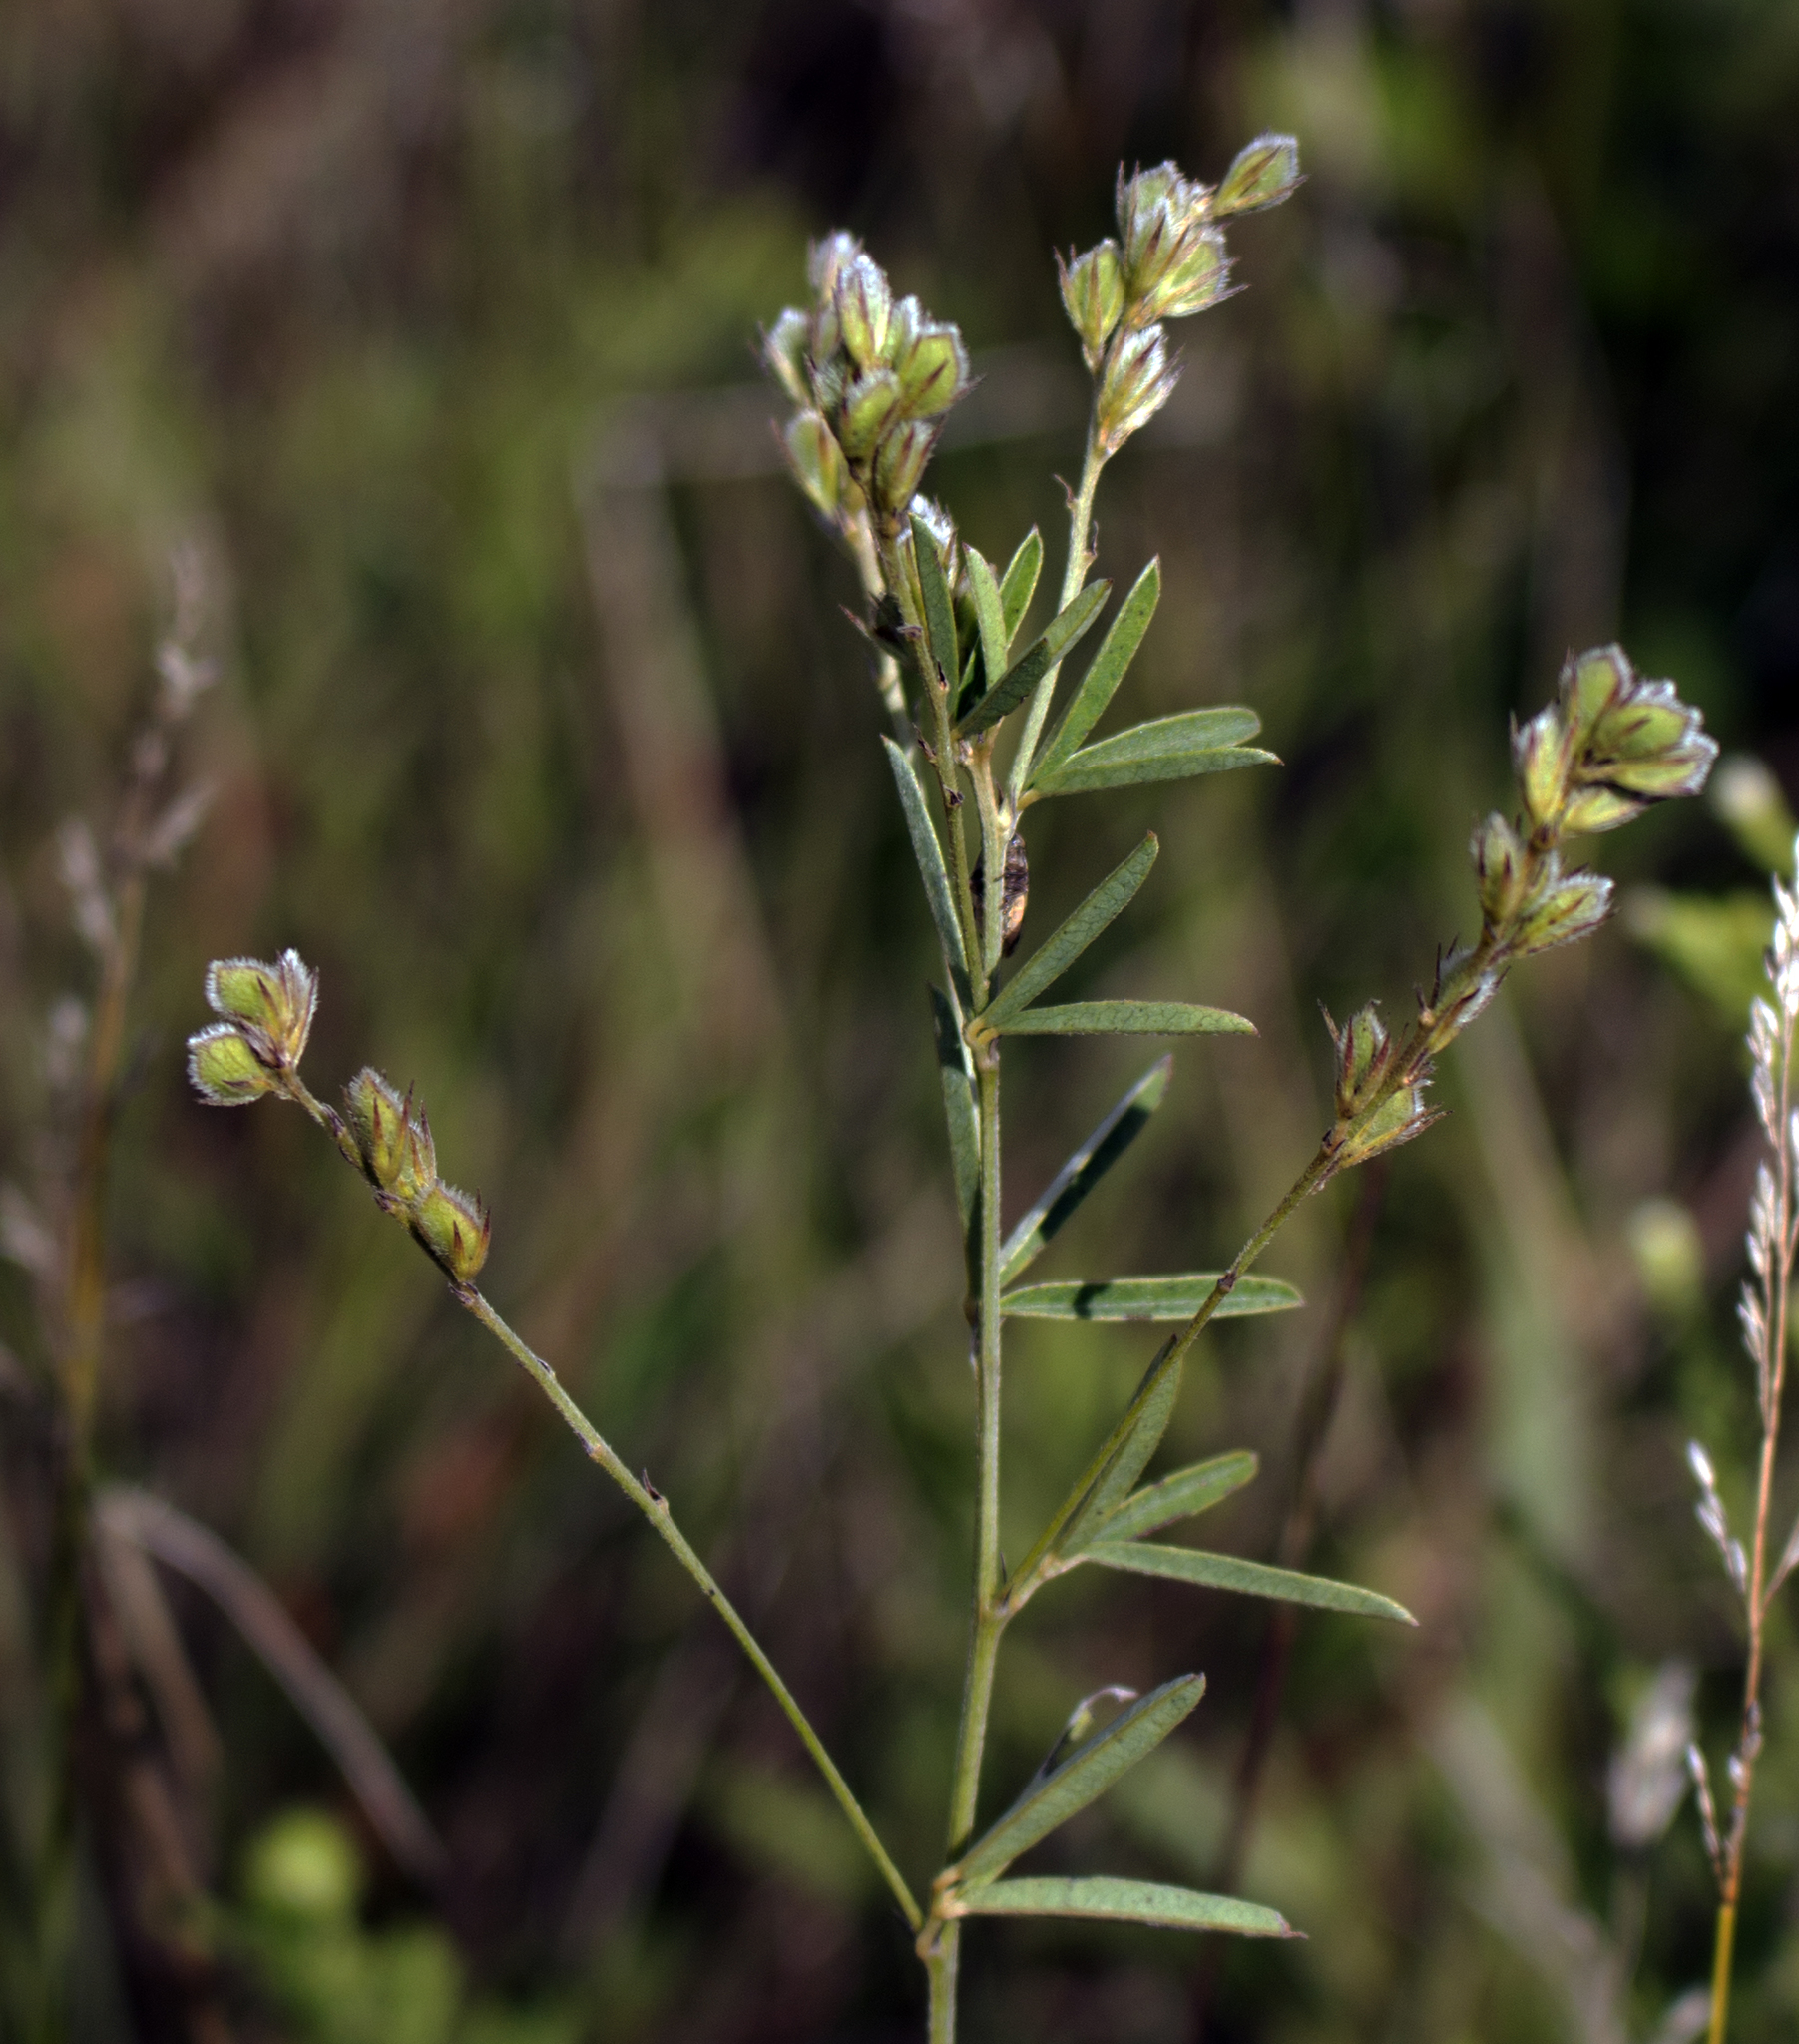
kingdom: Plantae
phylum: Tracheophyta
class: Magnoliopsida
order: Fabales
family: Fabaceae
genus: Lespedeza
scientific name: Lespedeza leptostachya
